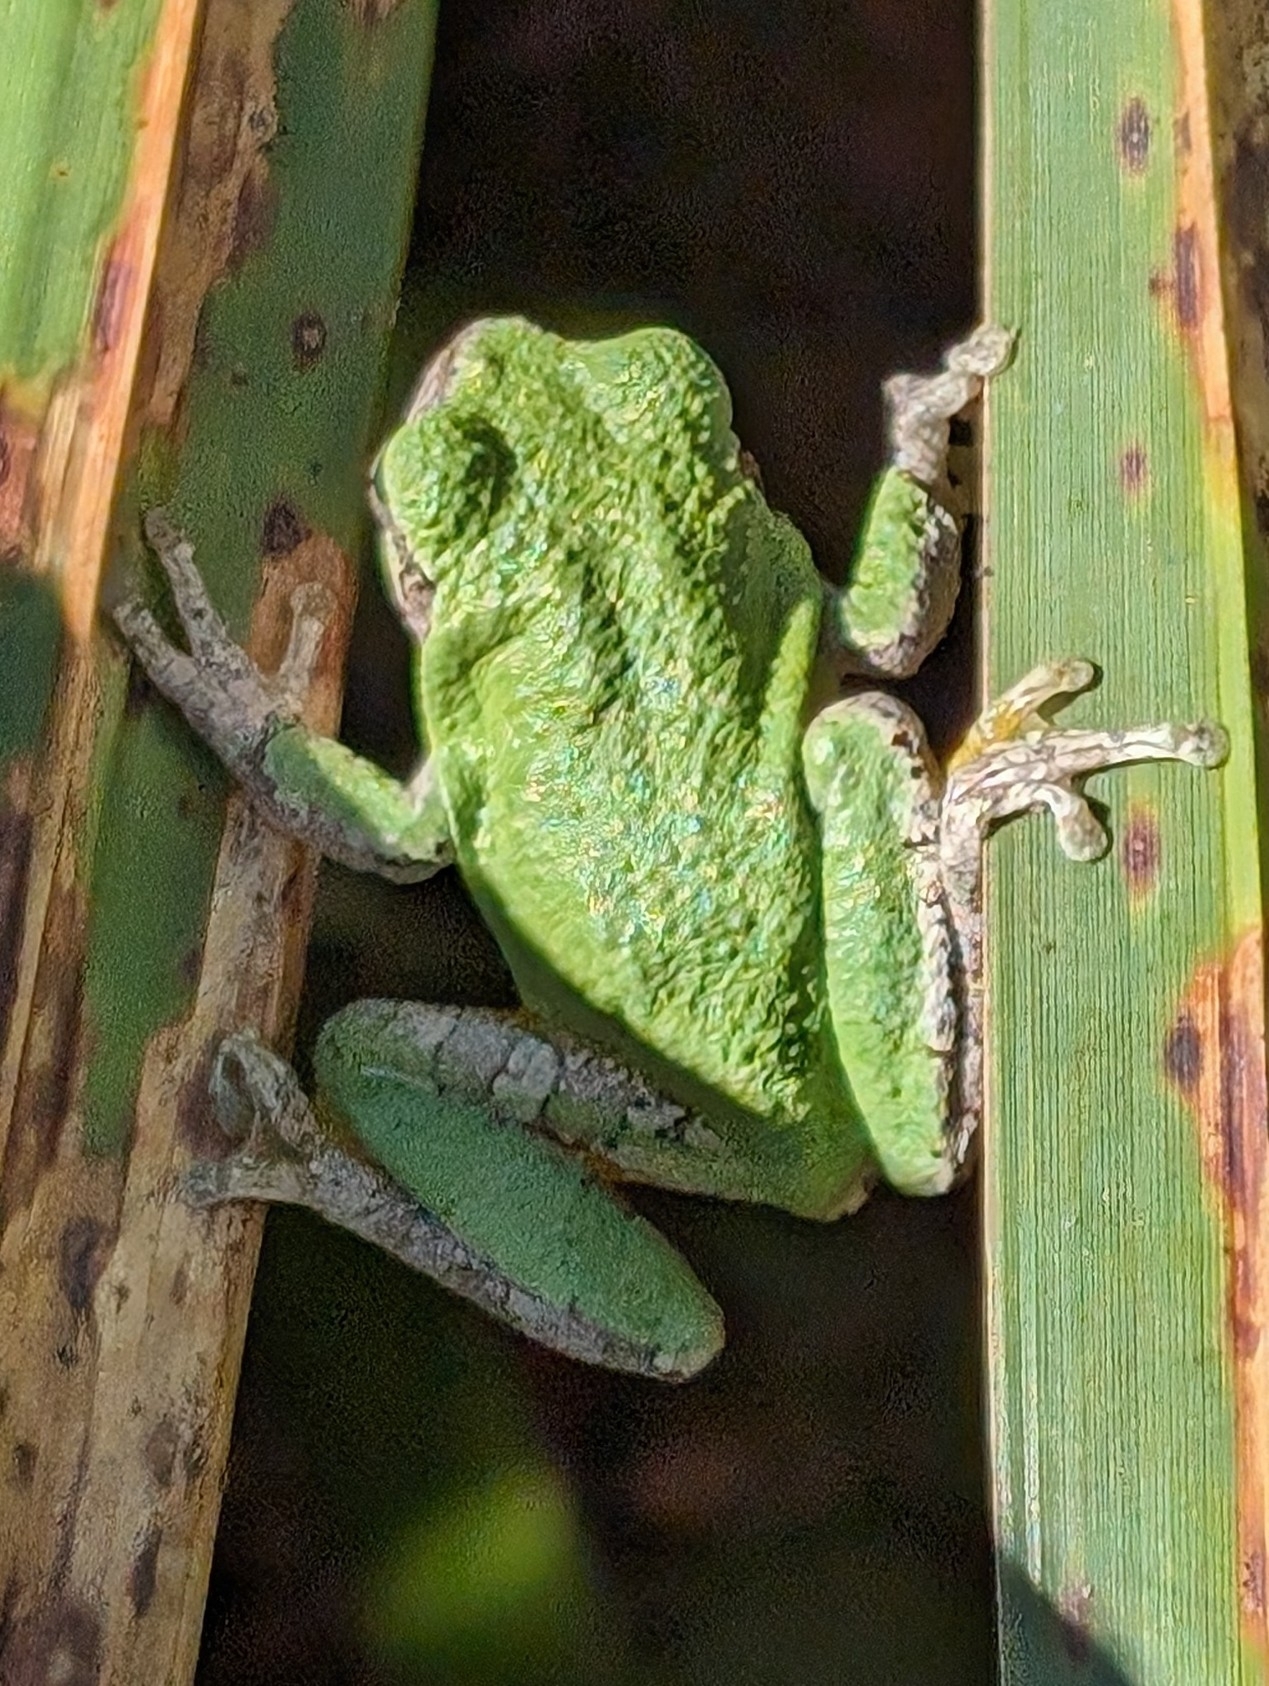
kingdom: Animalia
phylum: Chordata
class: Amphibia
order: Anura
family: Hylidae
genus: Dryophytes
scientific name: Dryophytes versicolor
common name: Gray treefrog
